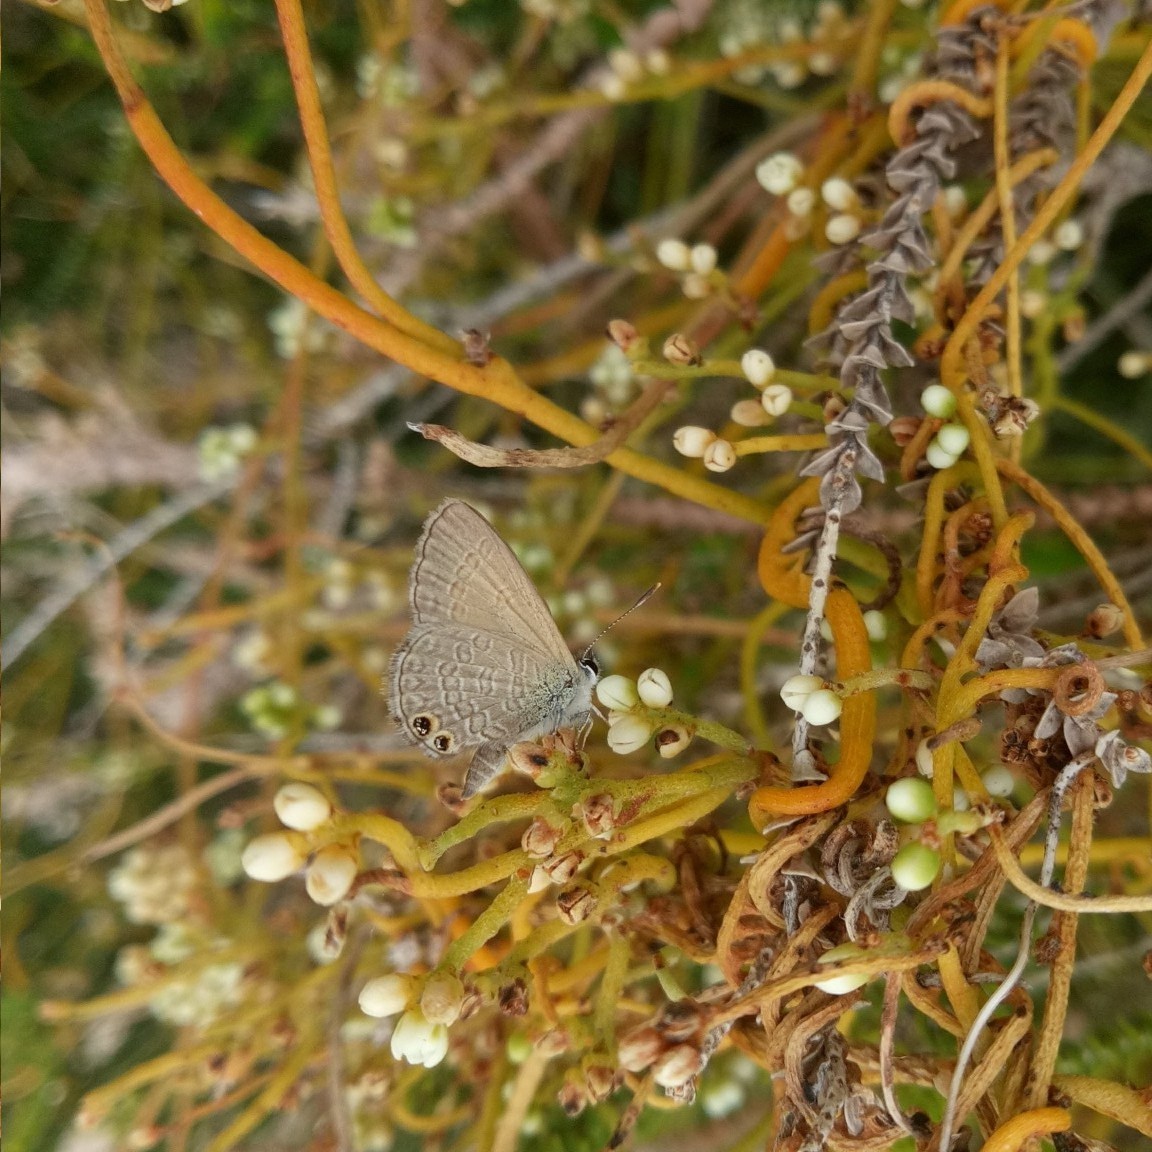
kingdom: Animalia
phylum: Arthropoda
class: Insecta
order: Lepidoptera
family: Lycaenidae
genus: Nacaduba
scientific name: Nacaduba biocellata
